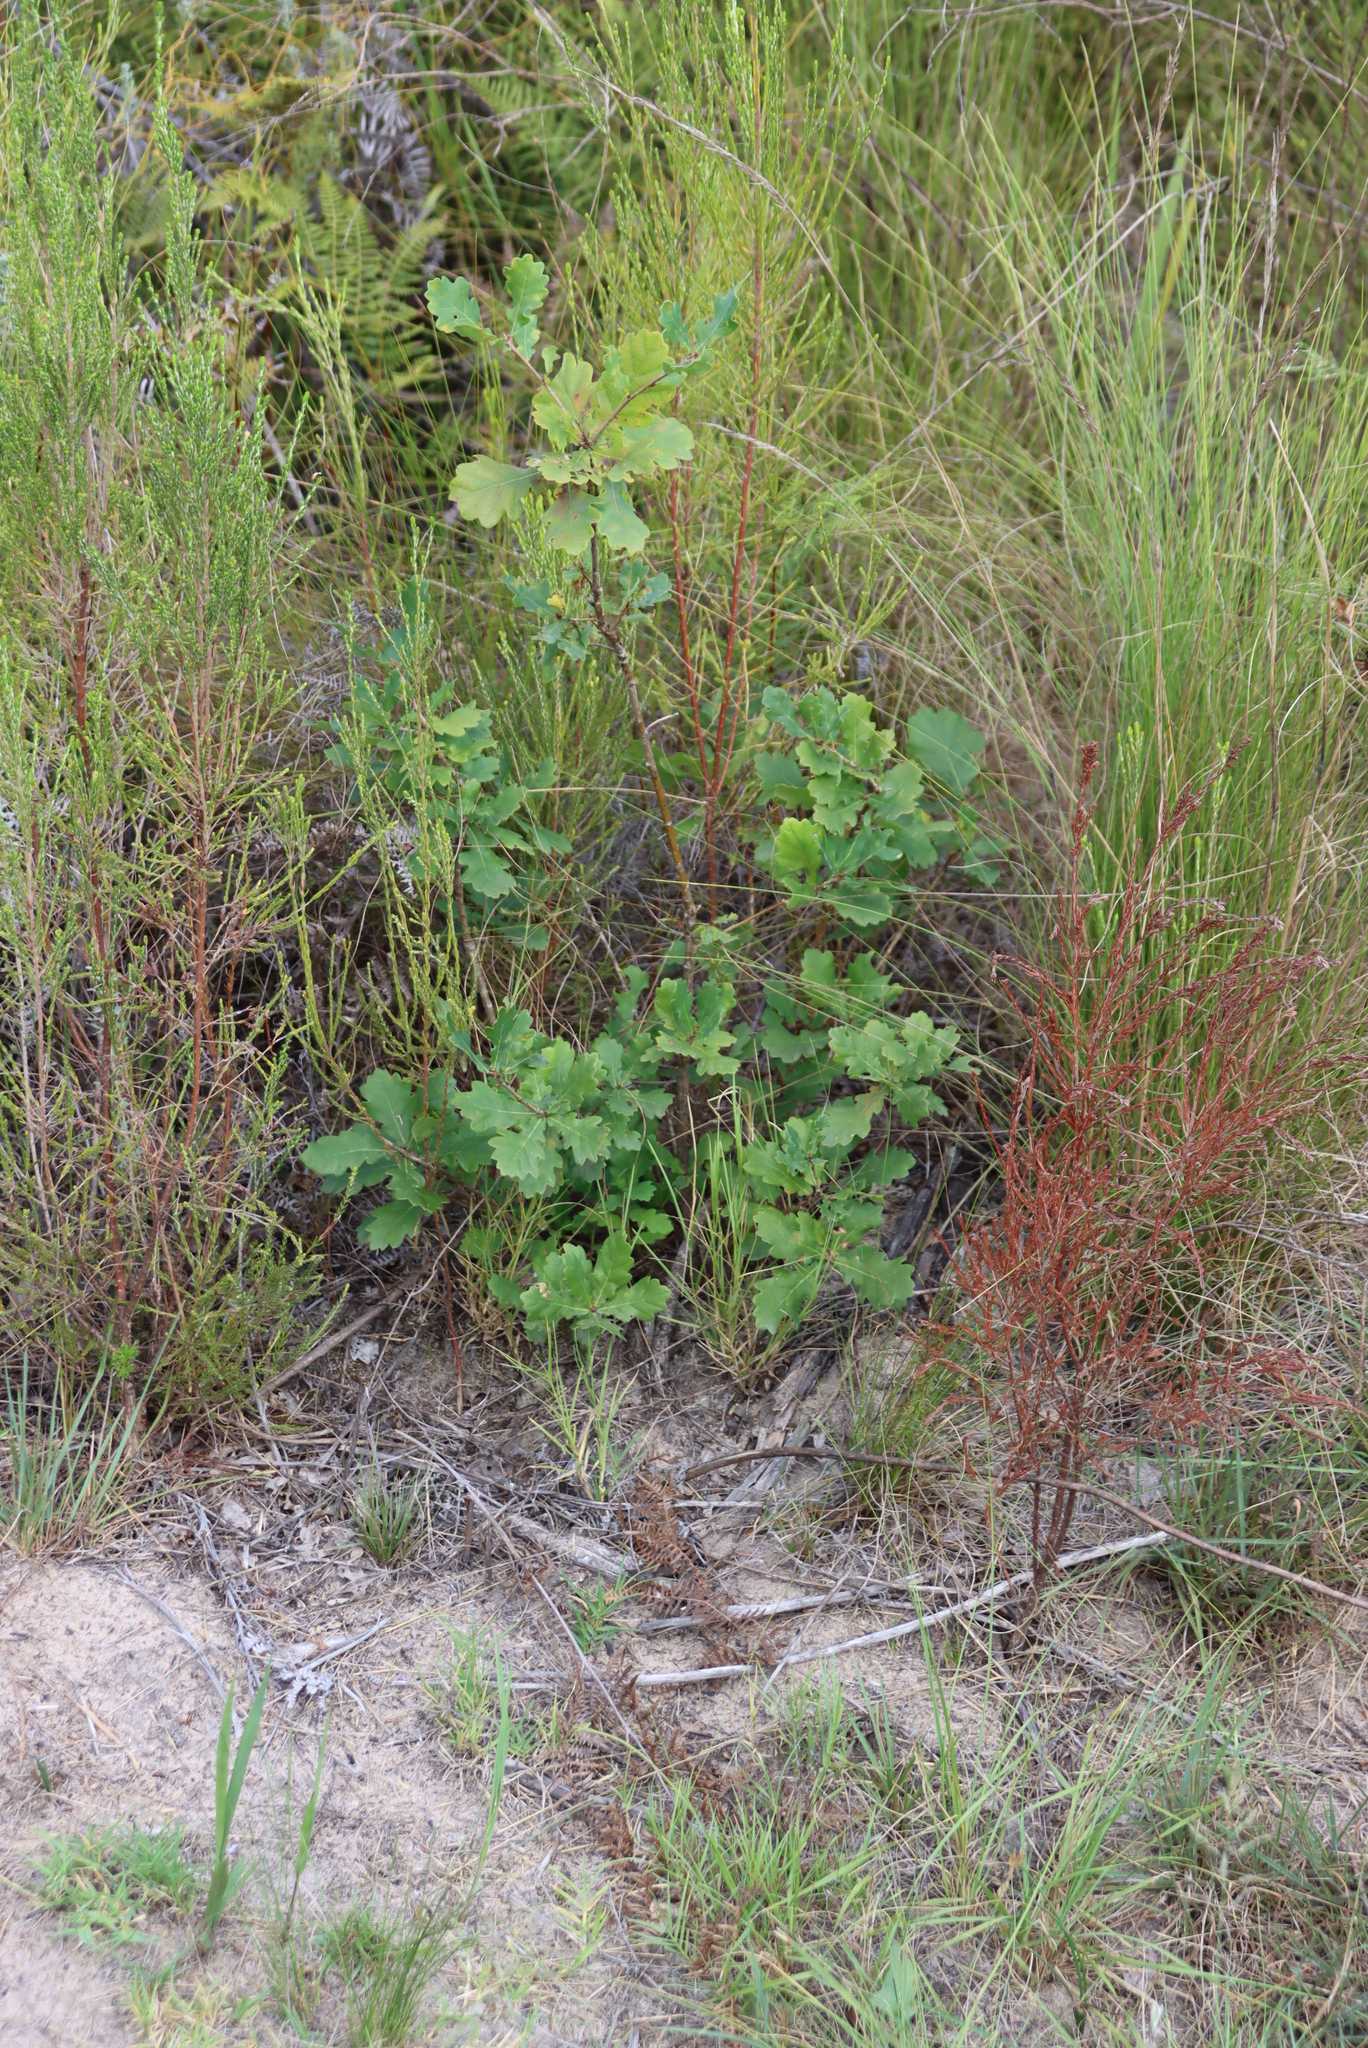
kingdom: Plantae
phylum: Tracheophyta
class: Magnoliopsida
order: Fagales
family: Fagaceae
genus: Quercus
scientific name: Quercus robur
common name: Pedunculate oak
